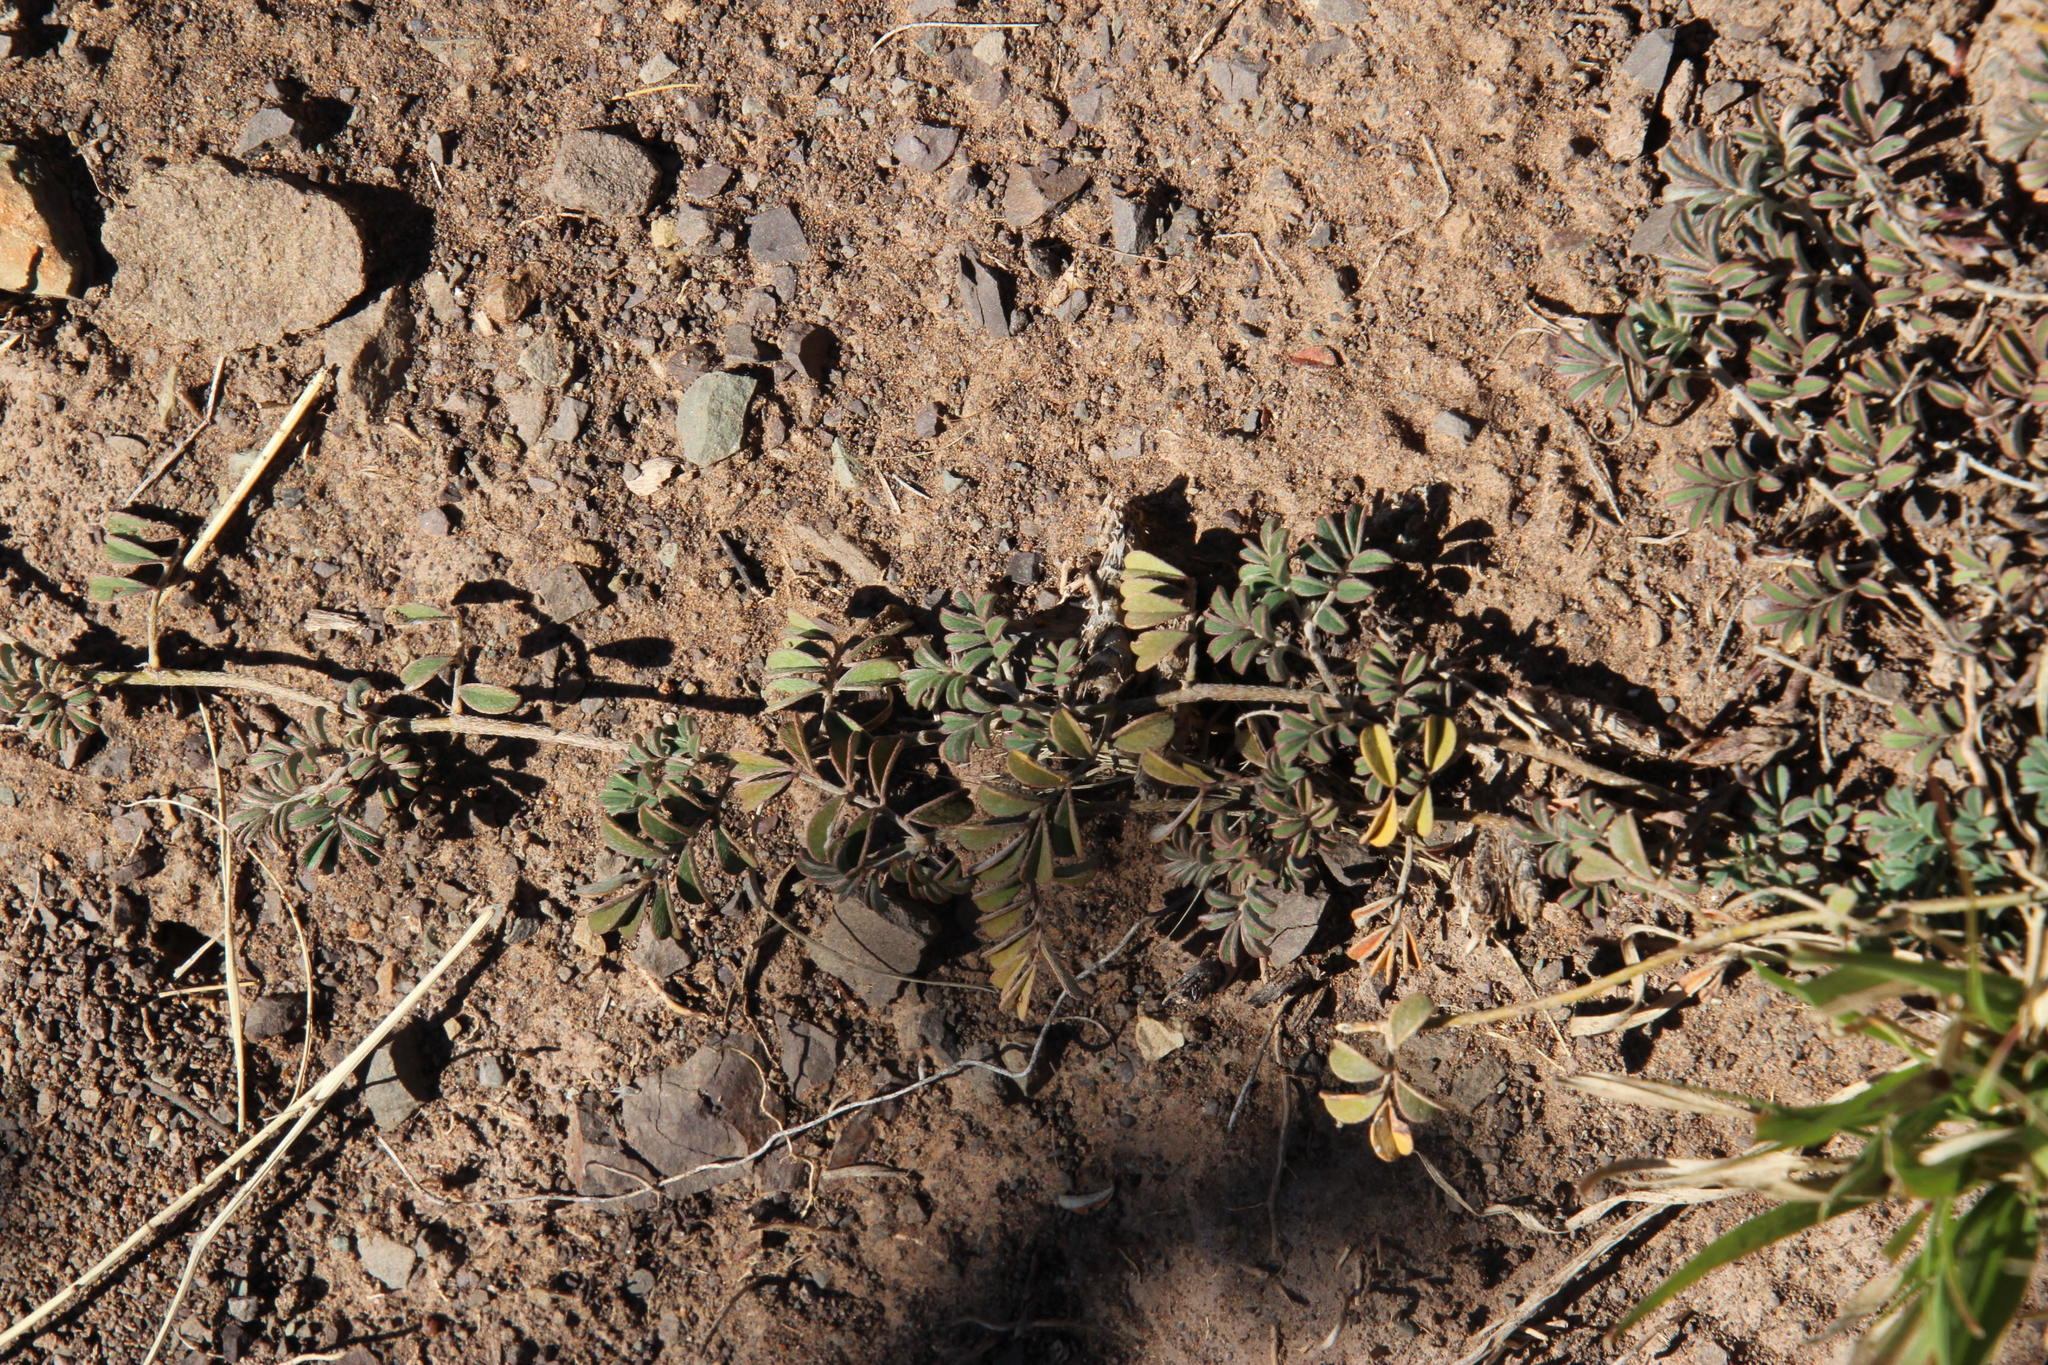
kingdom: Plantae
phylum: Tracheophyta
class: Magnoliopsida
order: Fabales
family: Fabaceae
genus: Indigofera
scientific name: Indigofera alternans
